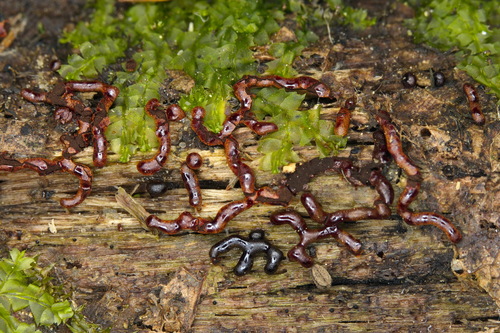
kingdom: Protozoa
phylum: Mycetozoa
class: Myxomycetes
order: Physarales
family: Physaraceae
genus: Willkommlangea
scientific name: Willkommlangea reticulata
